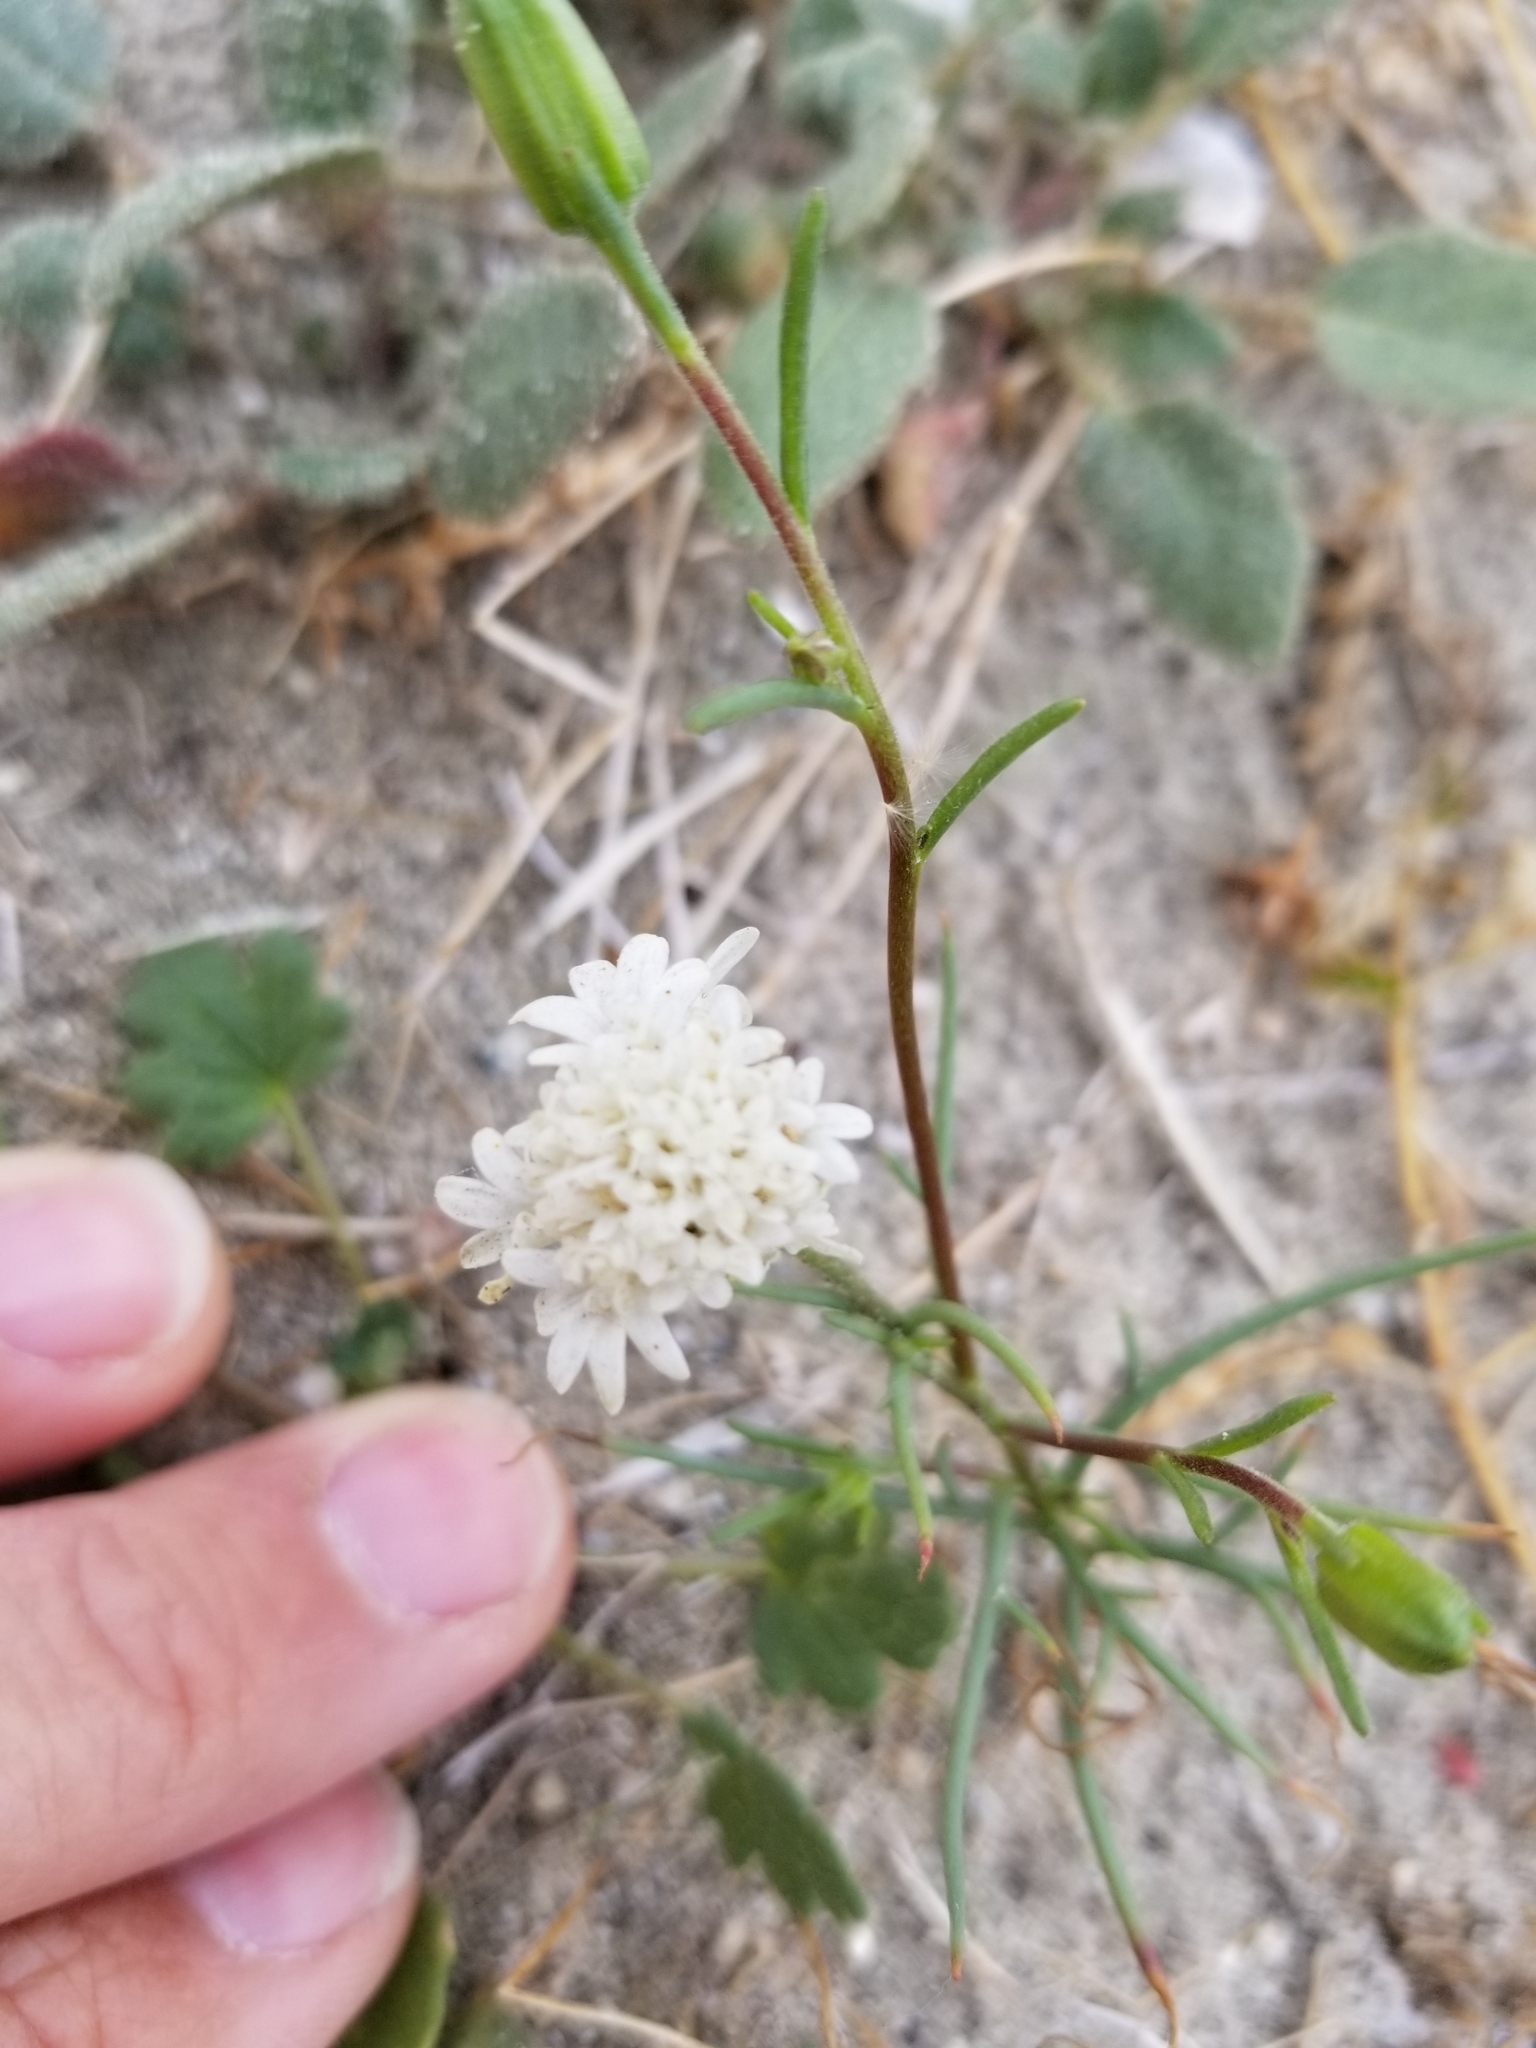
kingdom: Plantae
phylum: Tracheophyta
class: Magnoliopsida
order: Asterales
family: Asteraceae
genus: Chaenactis
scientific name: Chaenactis stevioides
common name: Desert pincushion
